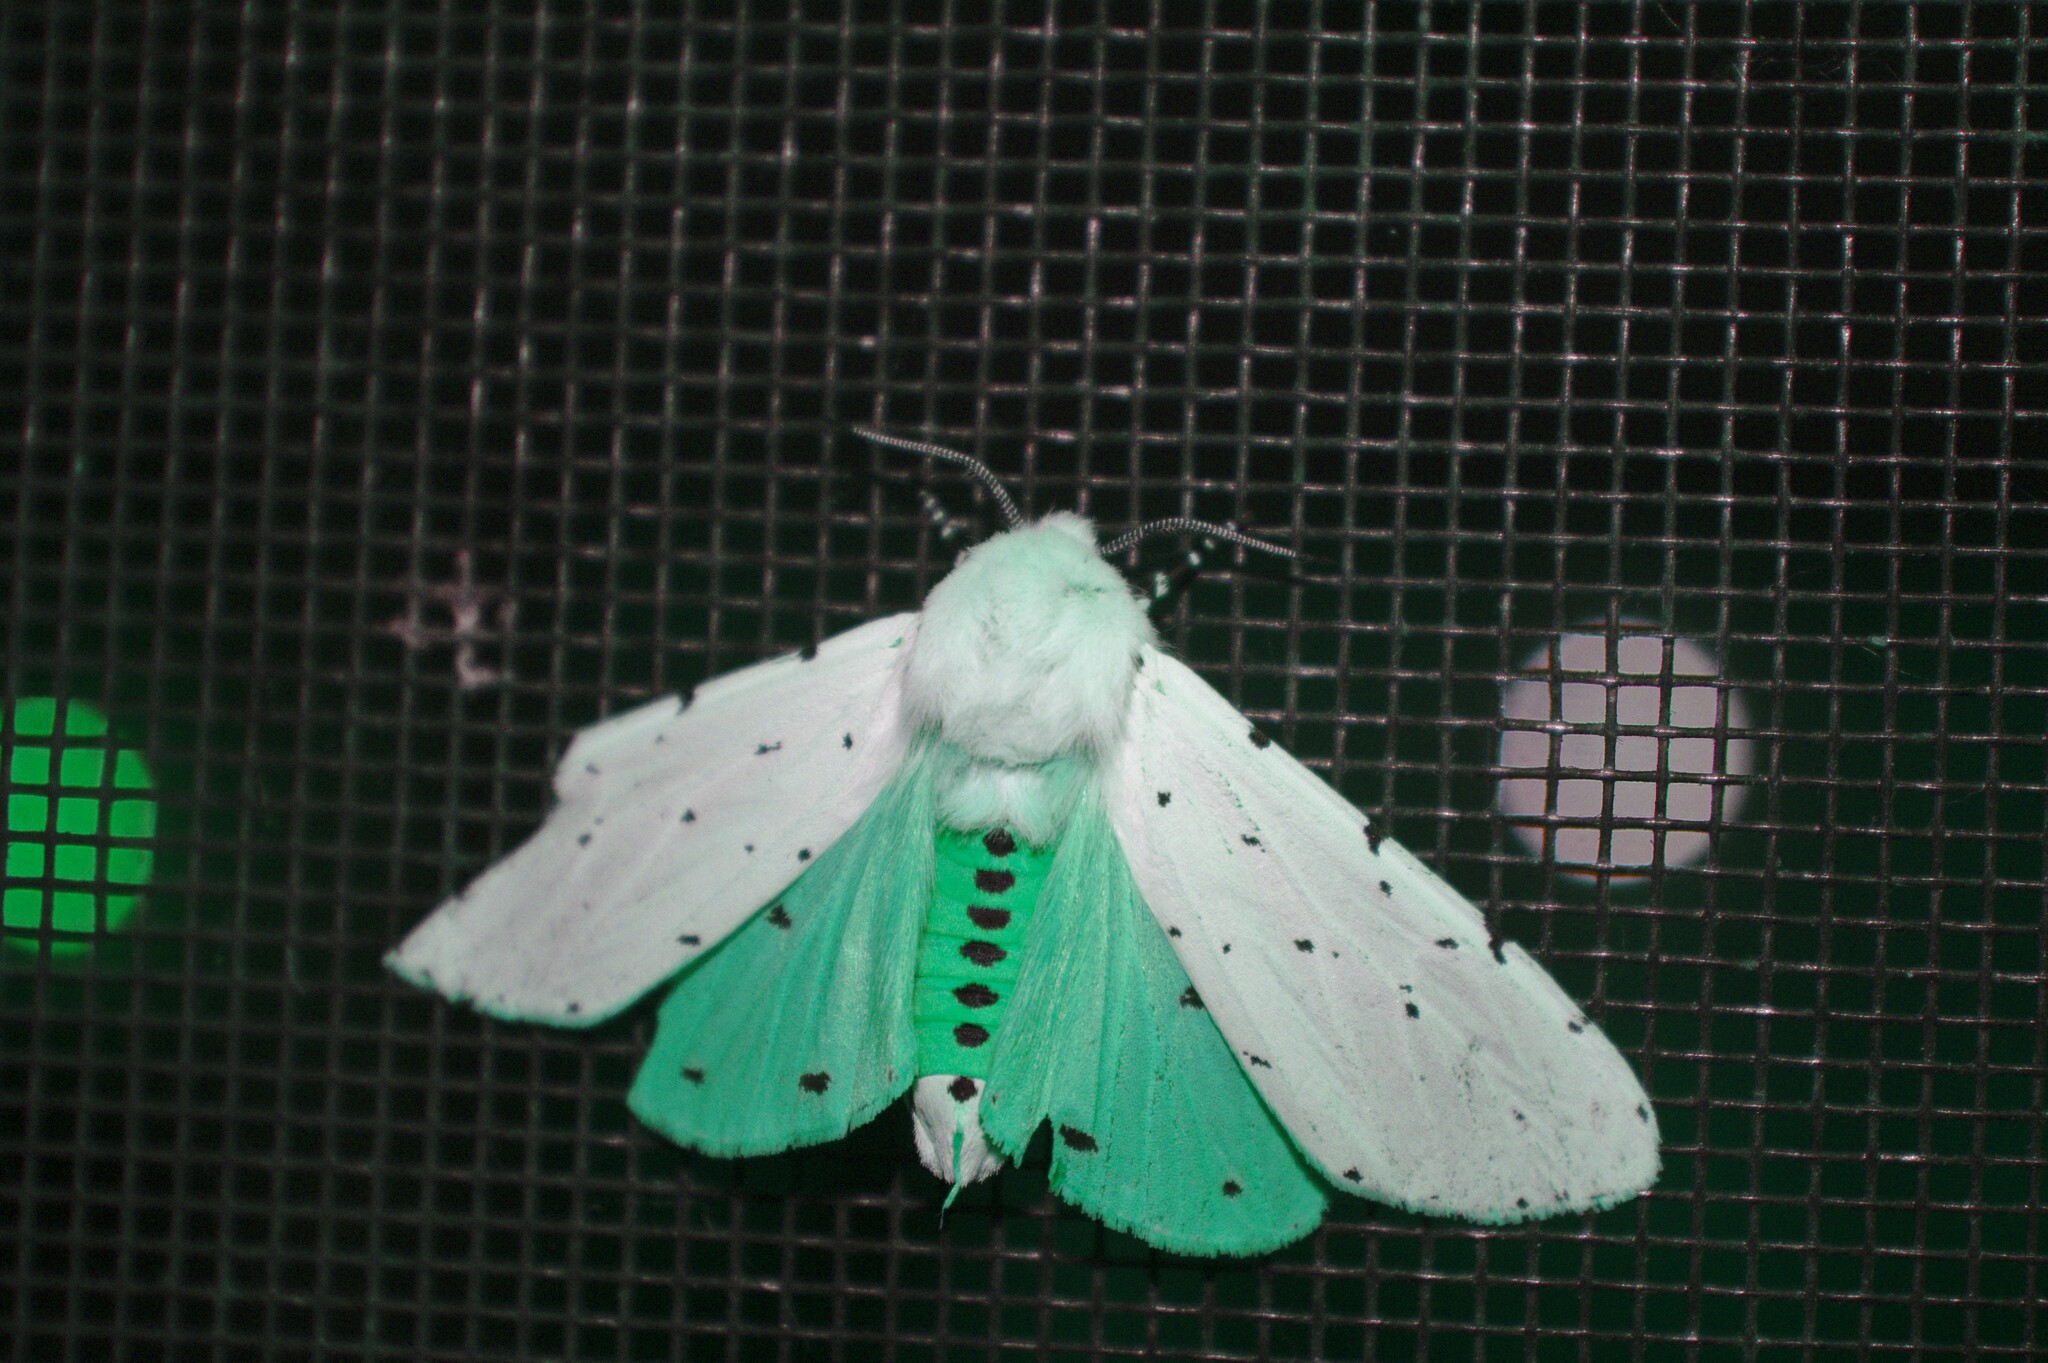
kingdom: Animalia
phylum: Arthropoda
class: Insecta
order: Lepidoptera
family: Erebidae
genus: Estigmene
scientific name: Estigmene acrea
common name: Salt marsh moth
